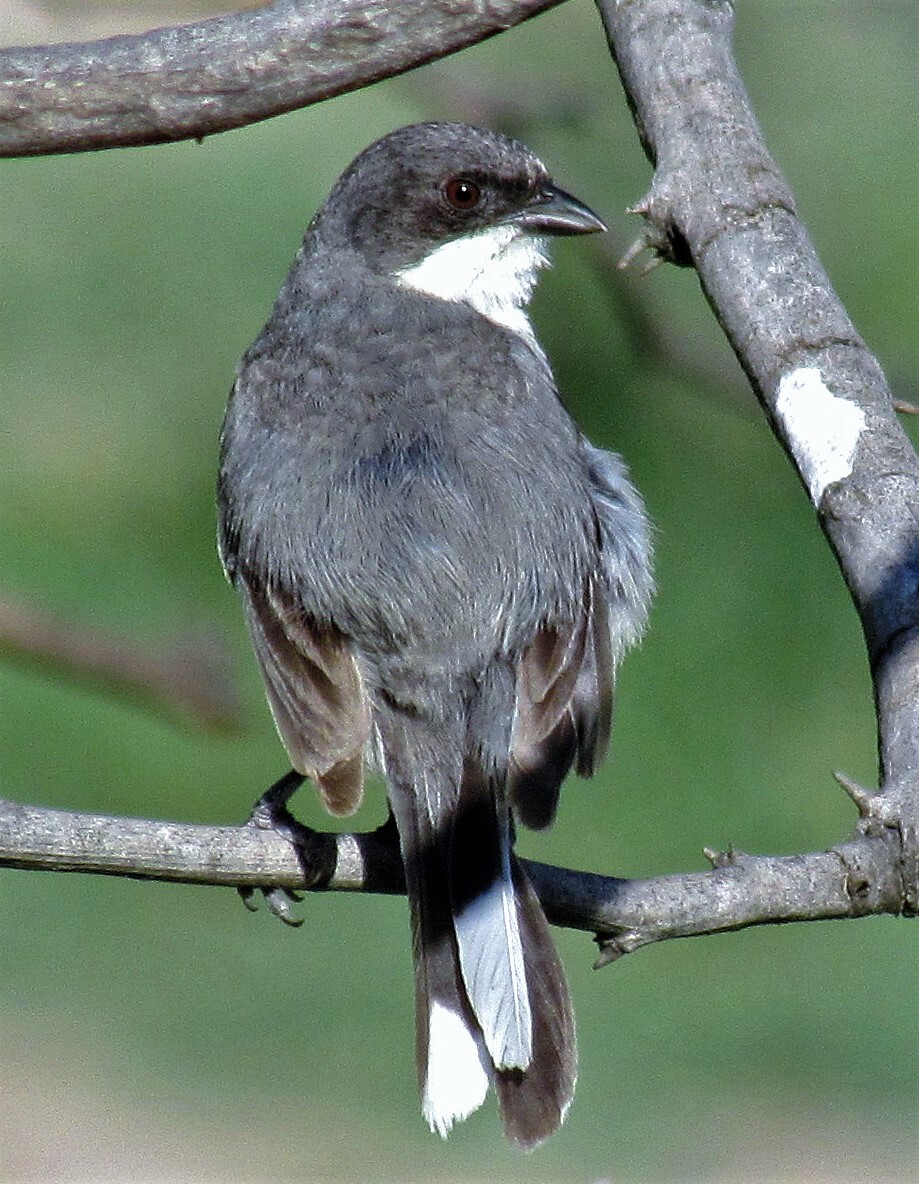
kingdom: Animalia
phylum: Chordata
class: Aves
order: Passeriformes
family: Thraupidae
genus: Microspingus
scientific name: Microspingus melanoleucus
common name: Black-capped warbling-finch
